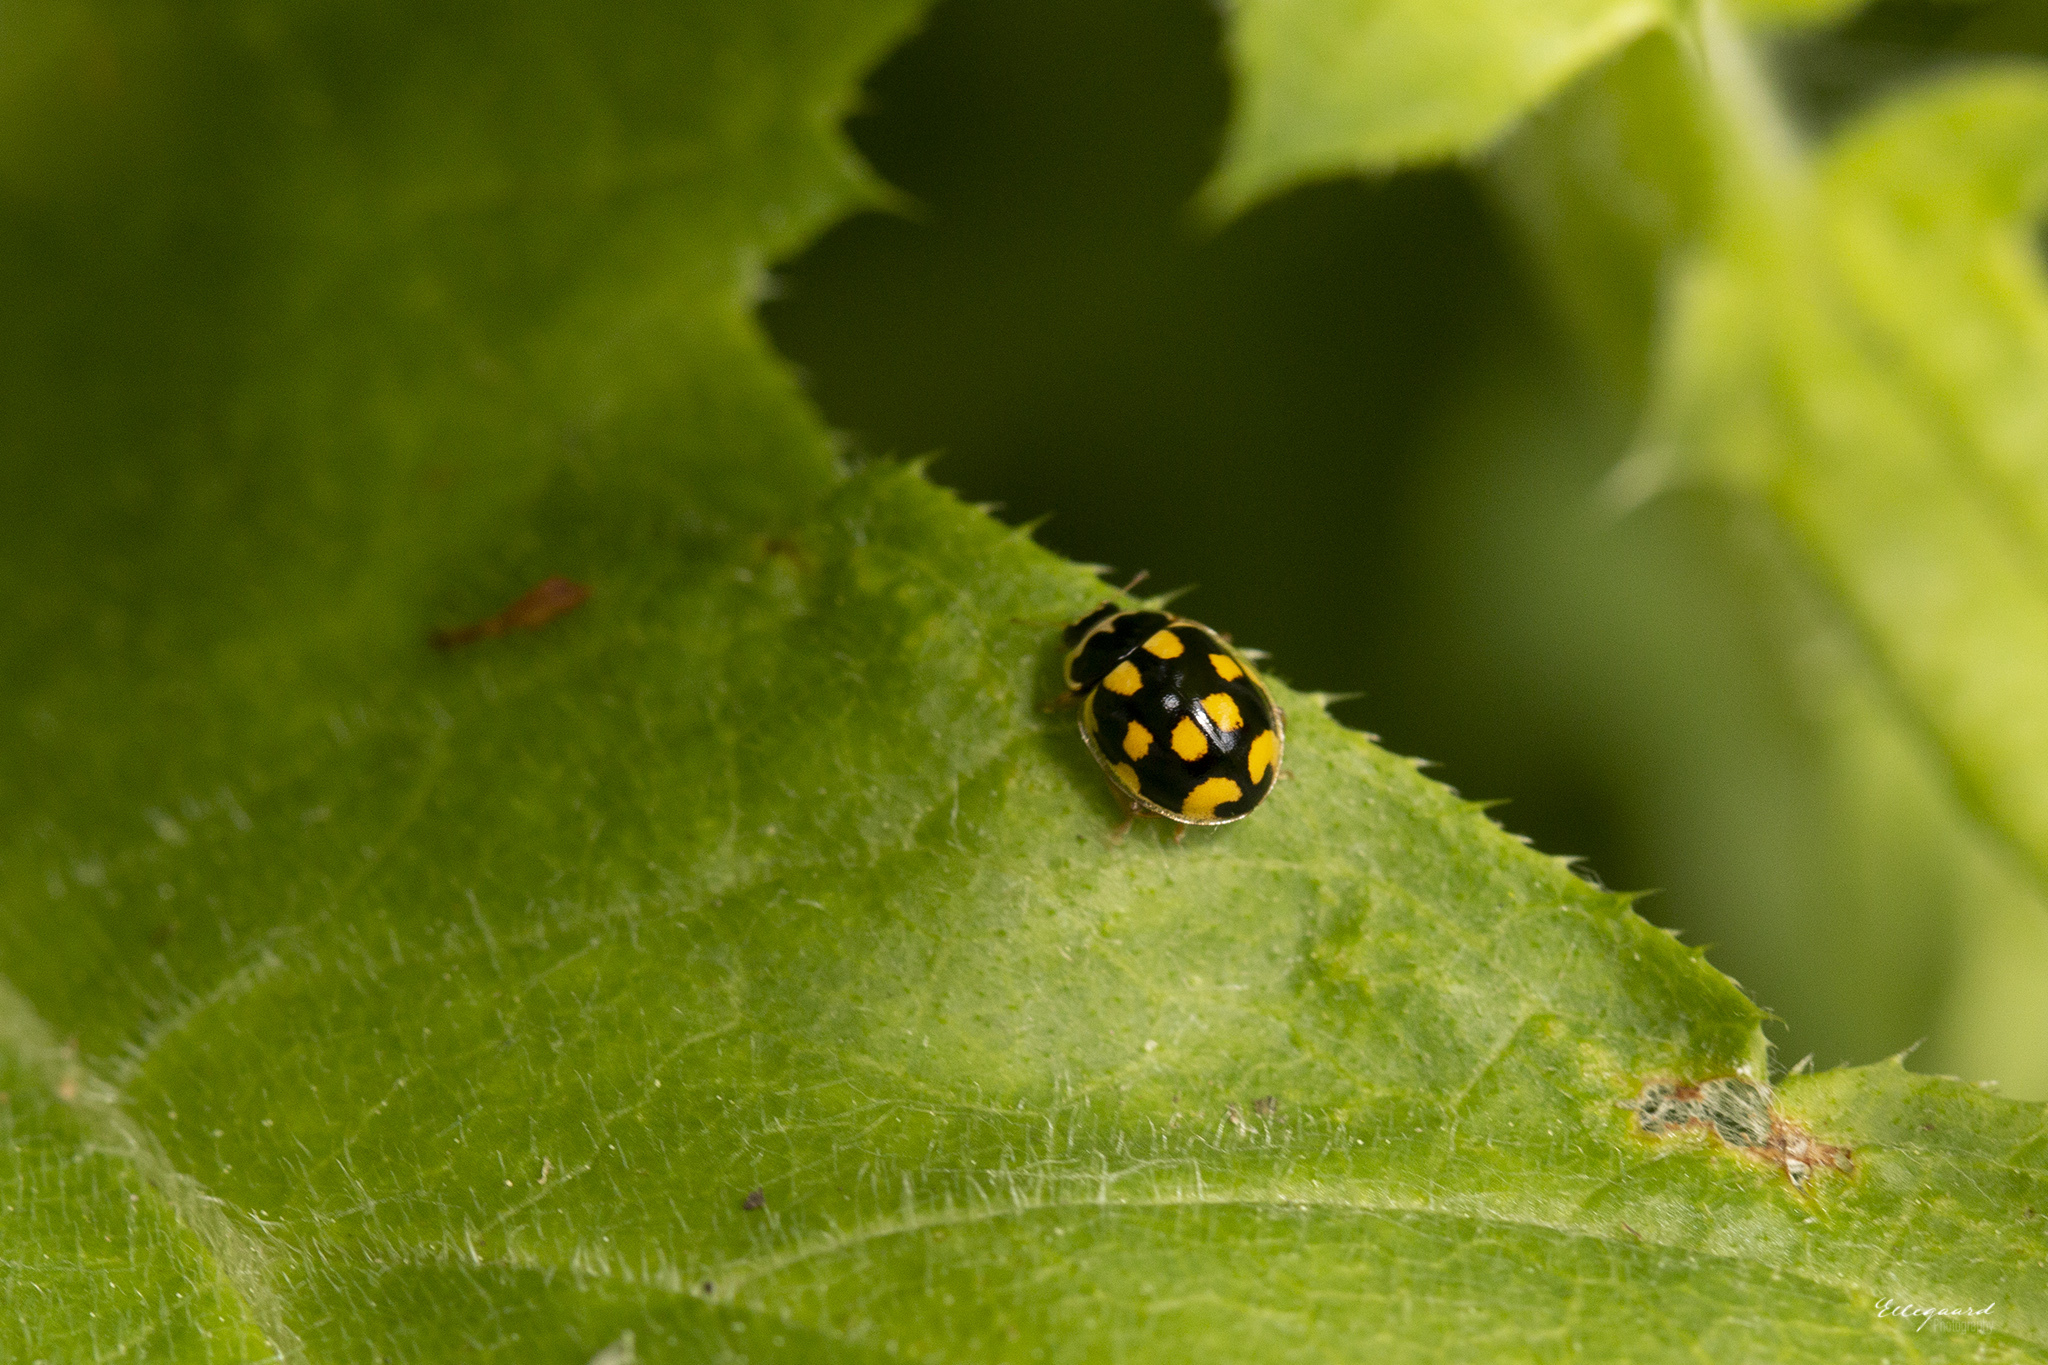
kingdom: Animalia
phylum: Arthropoda
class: Insecta
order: Coleoptera
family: Coccinellidae
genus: Propylaea
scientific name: Propylaea quatuordecimpunctata
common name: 14-spotted ladybird beetle
